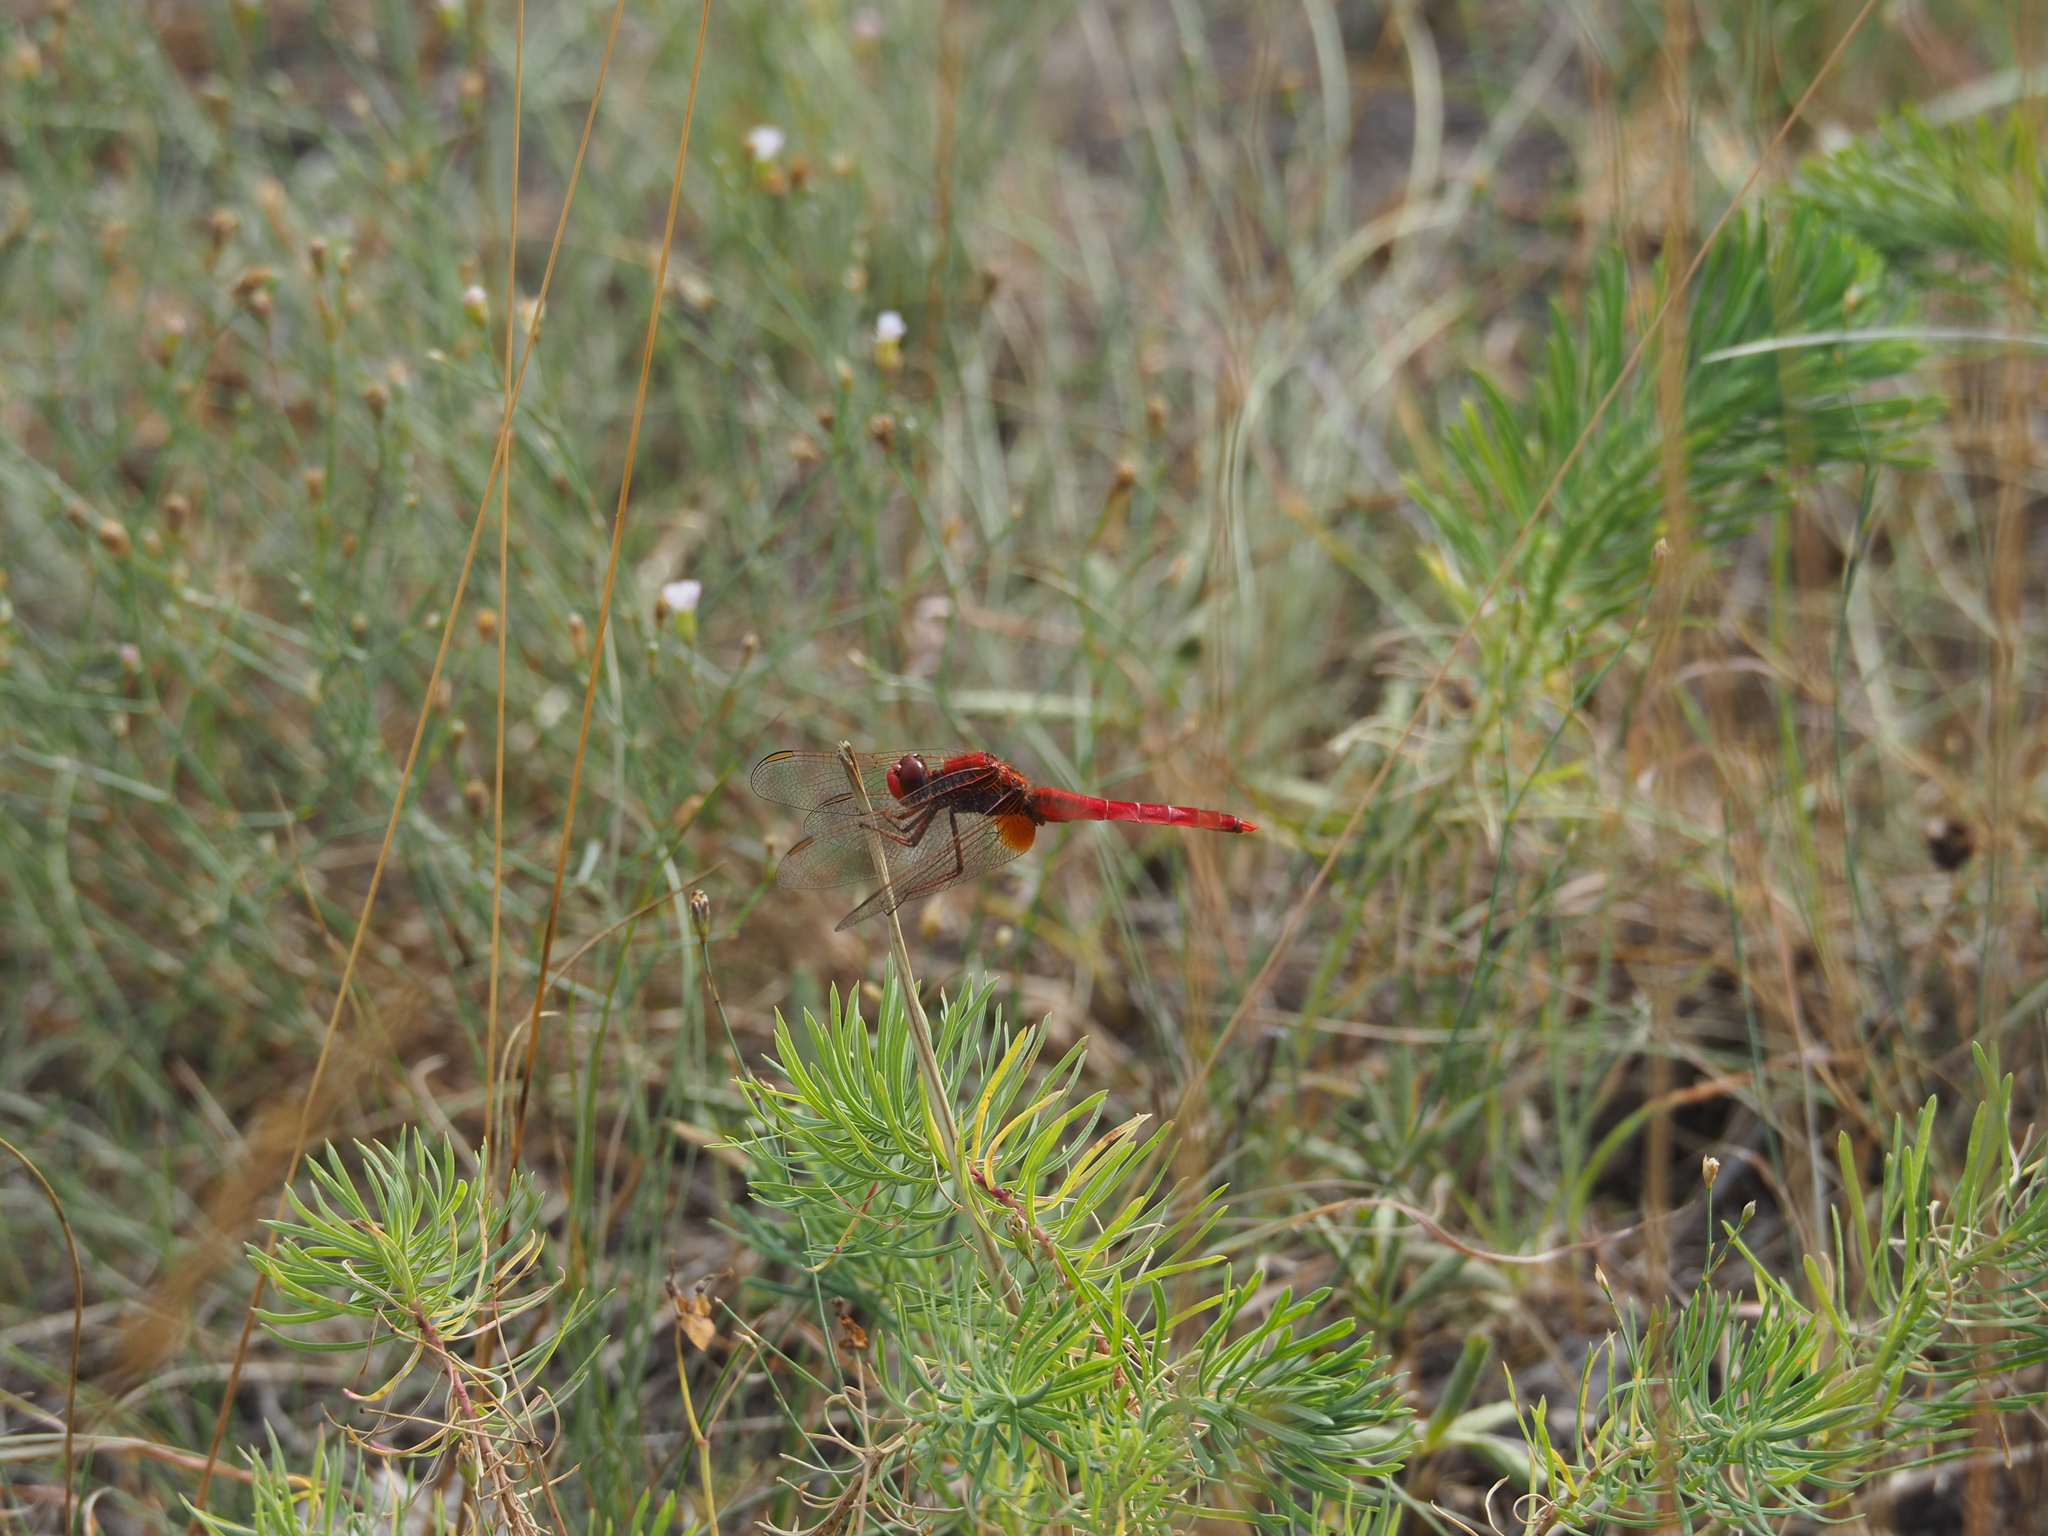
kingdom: Animalia
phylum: Arthropoda
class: Insecta
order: Odonata
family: Libellulidae
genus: Crocothemis
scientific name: Crocothemis erythraea
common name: Scarlet dragonfly
